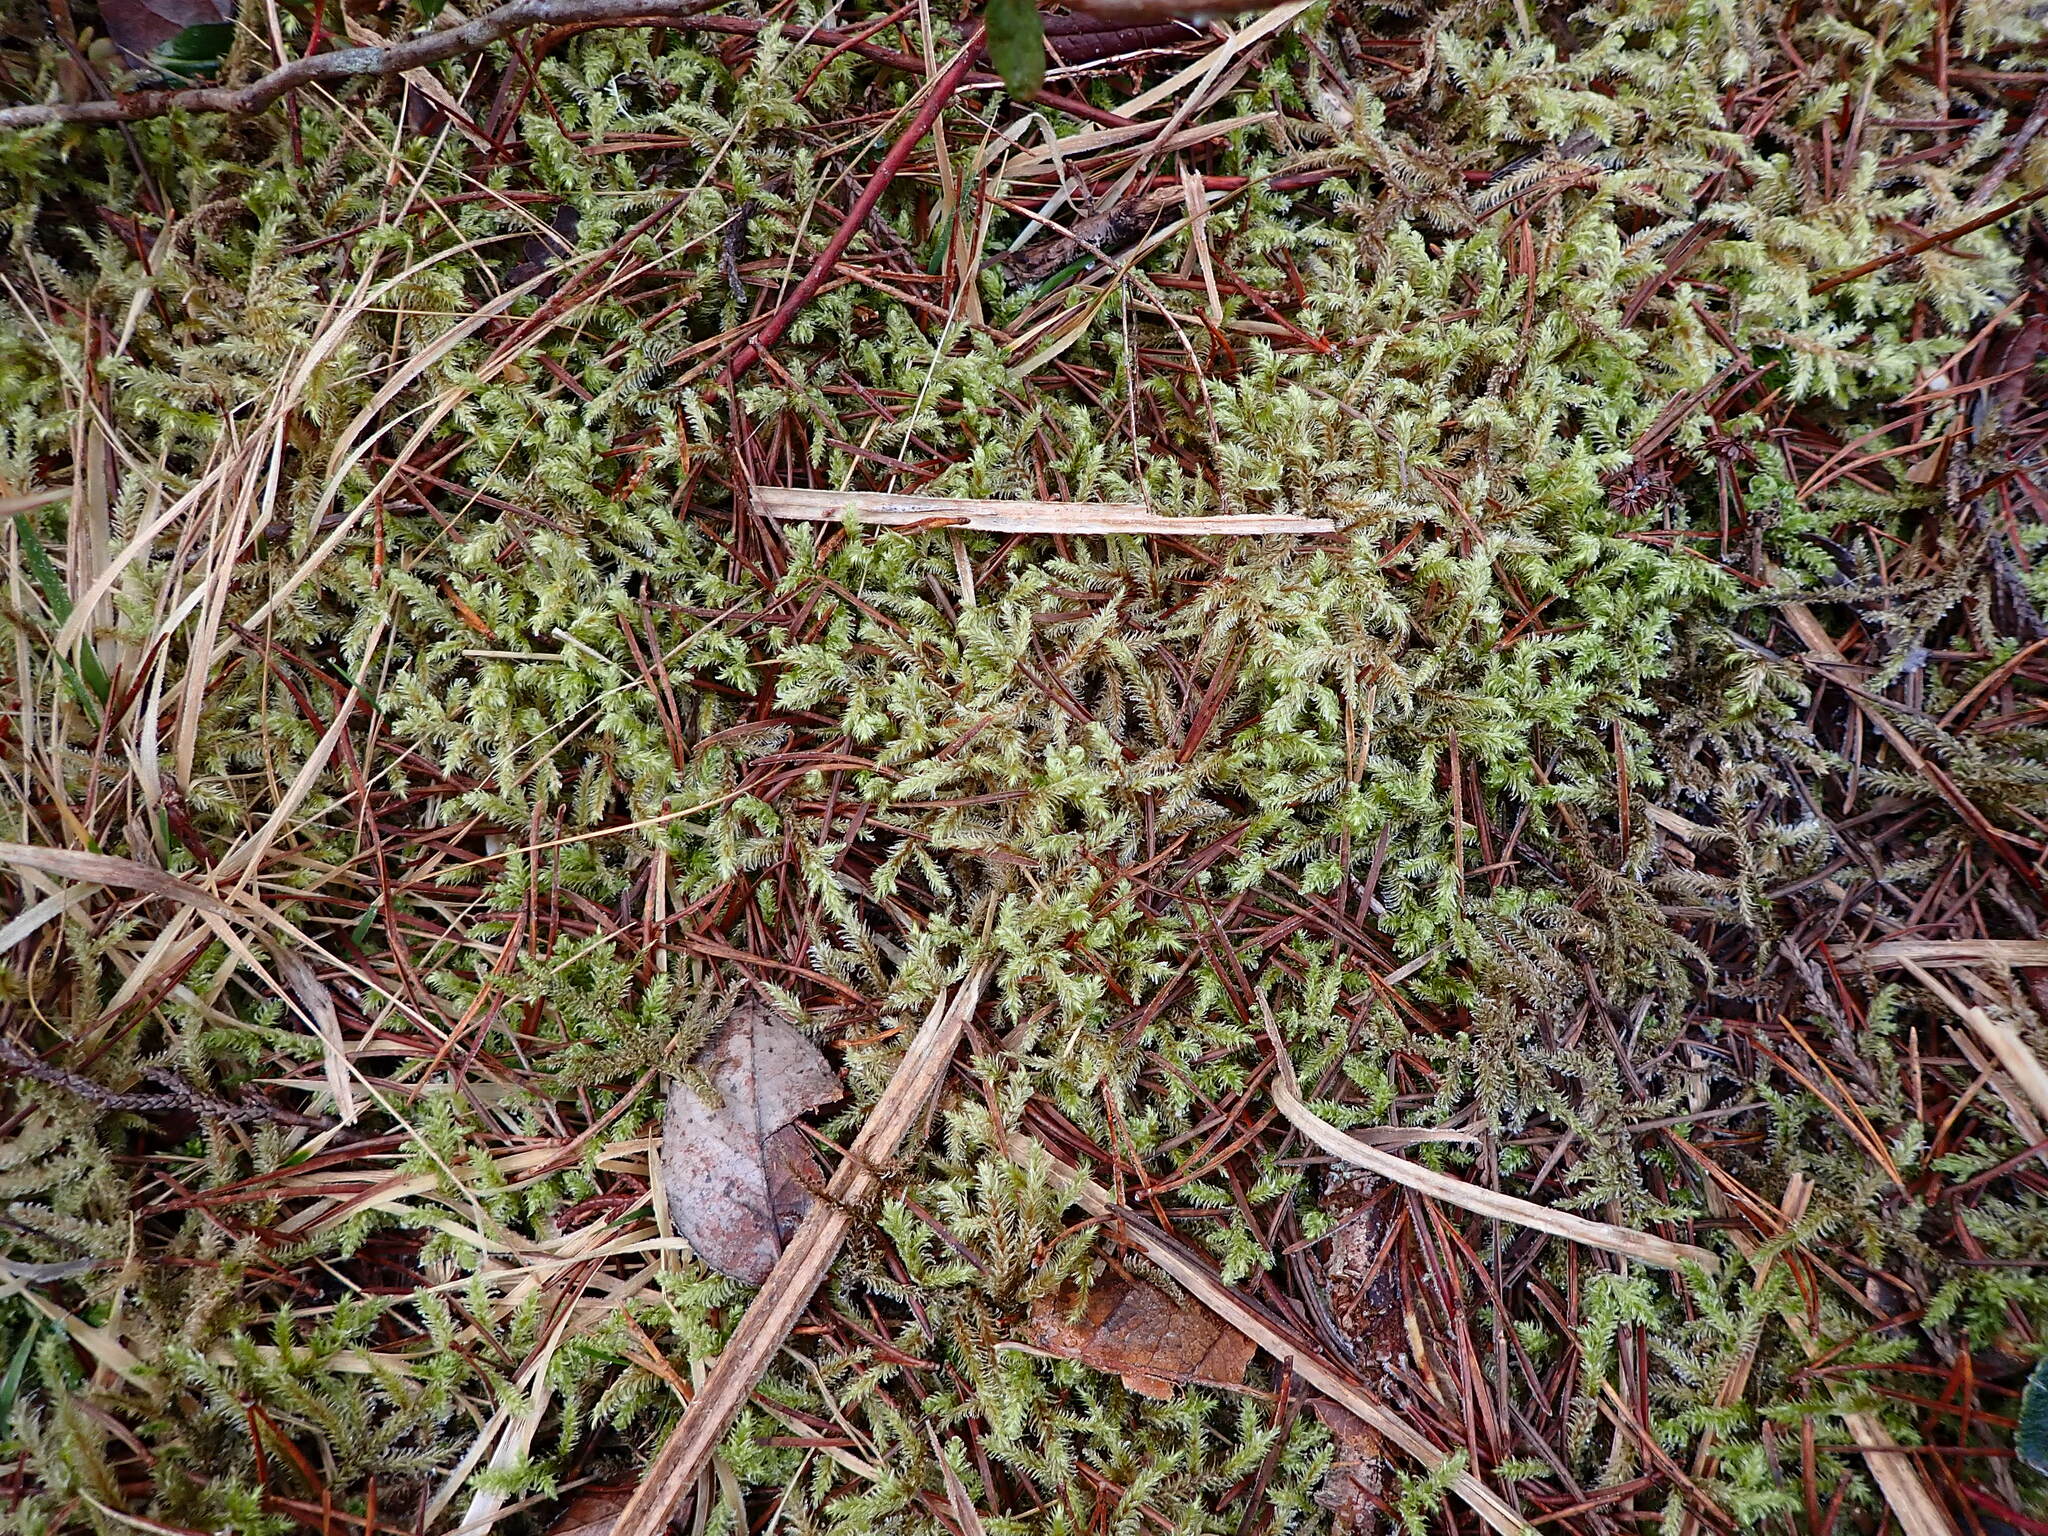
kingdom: Plantae
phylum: Bryophyta
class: Bryopsida
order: Hypnales
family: Hylocomiaceae
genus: Rhytidiadelphus
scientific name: Rhytidiadelphus loreus
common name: Lanky moss
